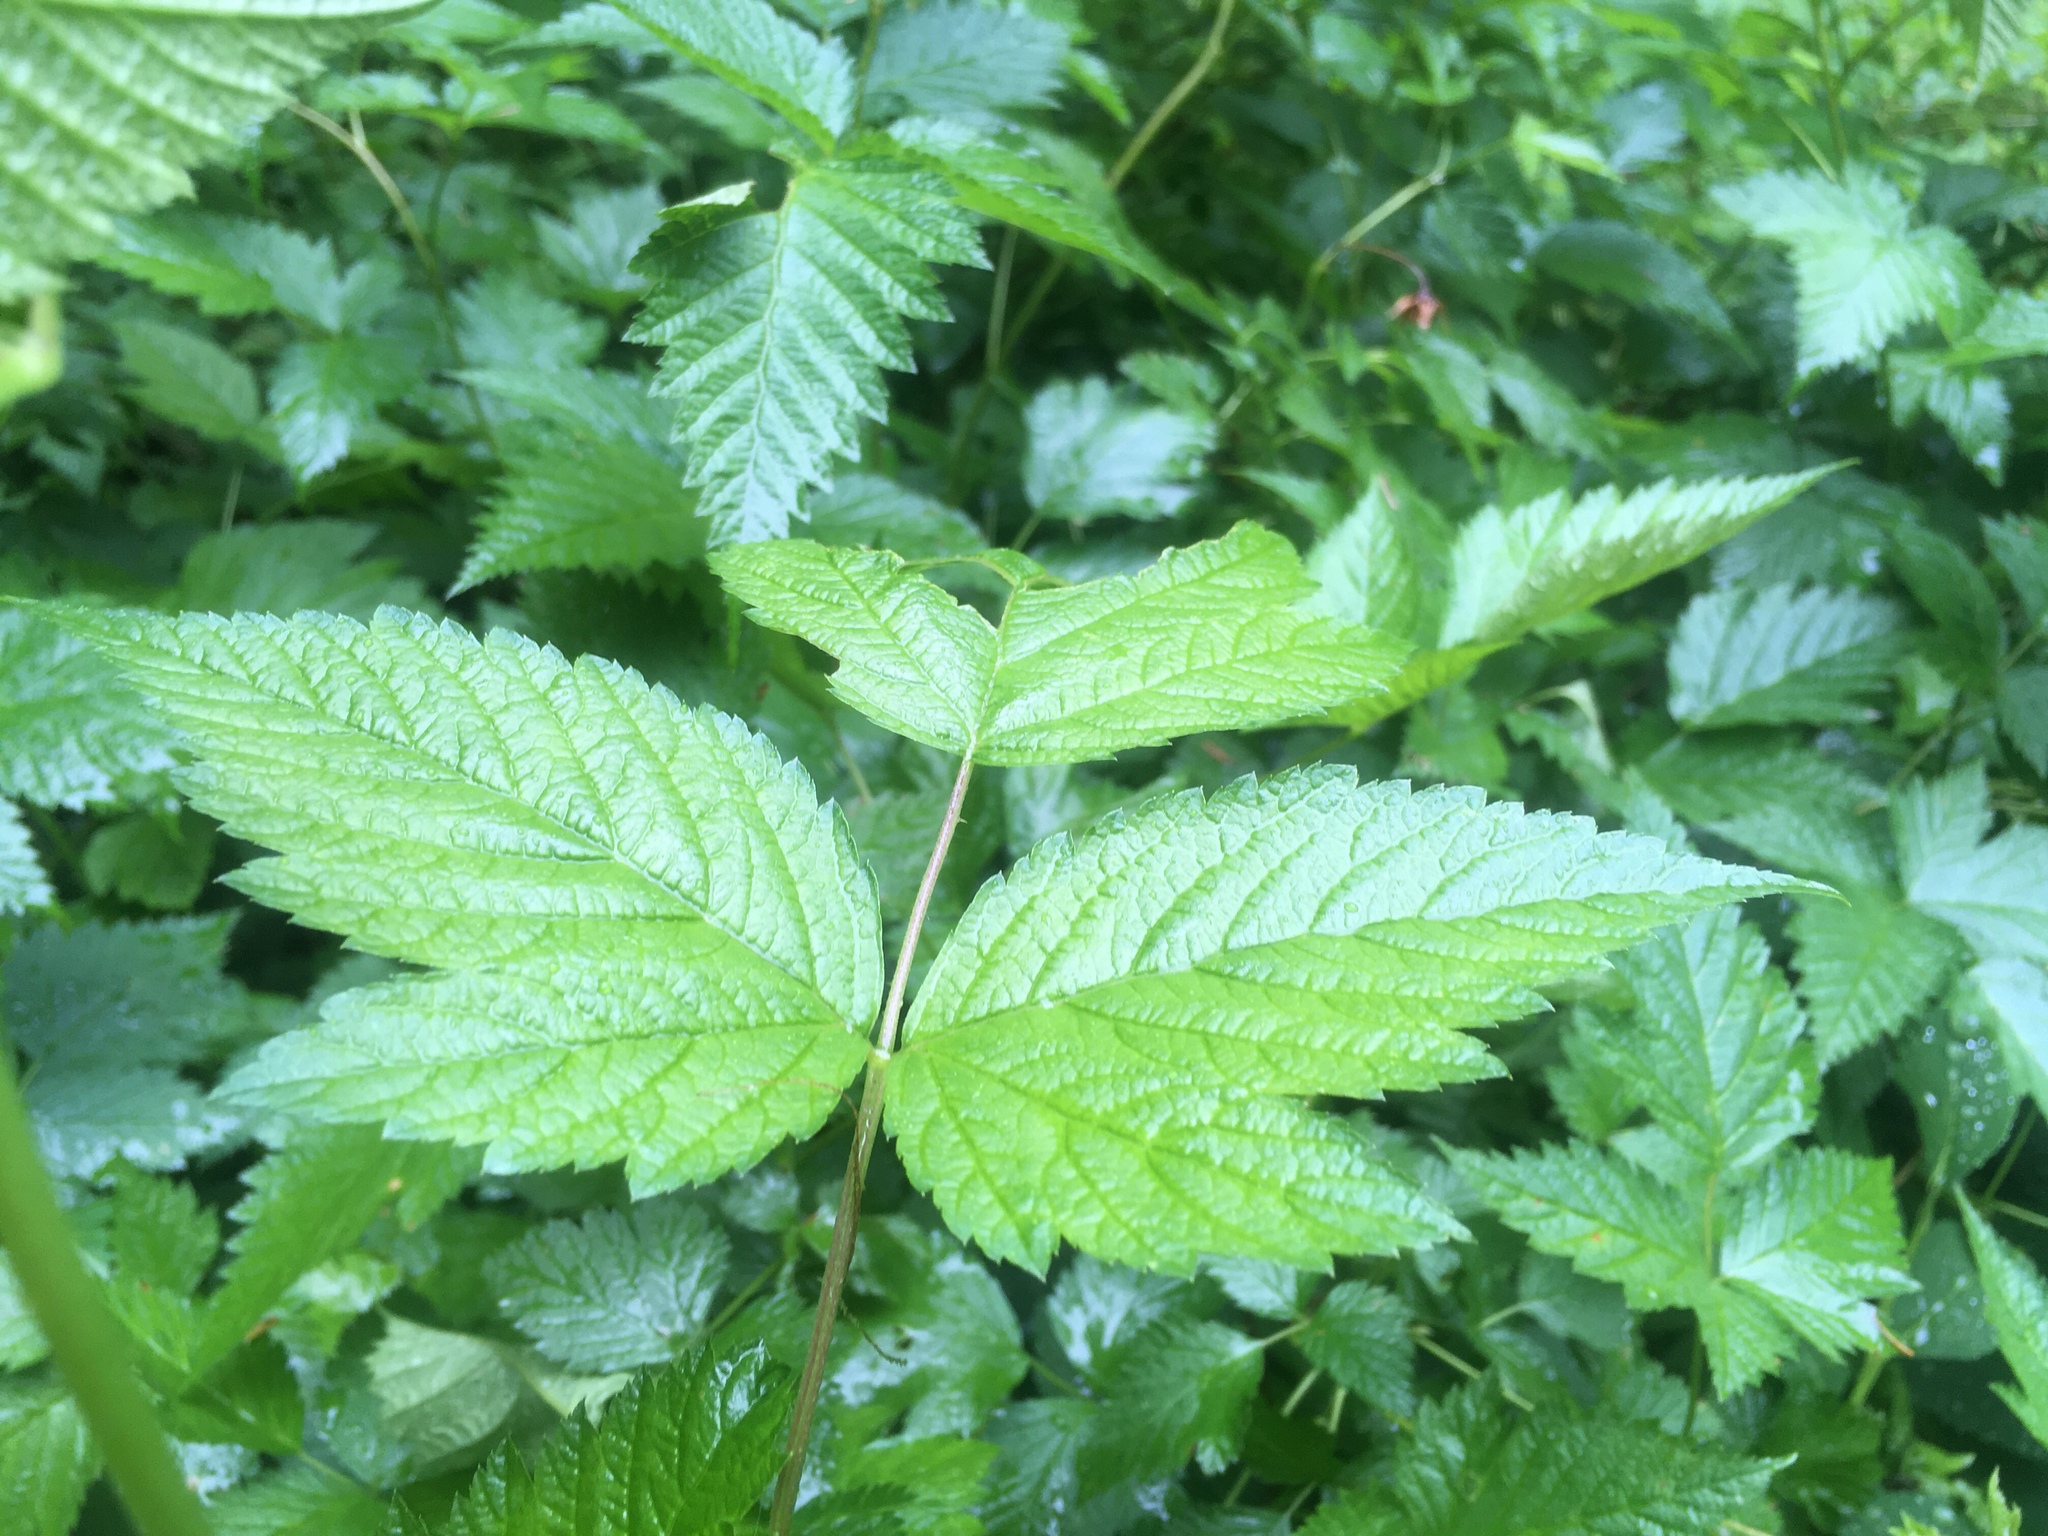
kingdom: Plantae
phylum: Tracheophyta
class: Magnoliopsida
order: Rosales
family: Rosaceae
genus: Rubus
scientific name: Rubus spectabilis
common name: Salmonberry
